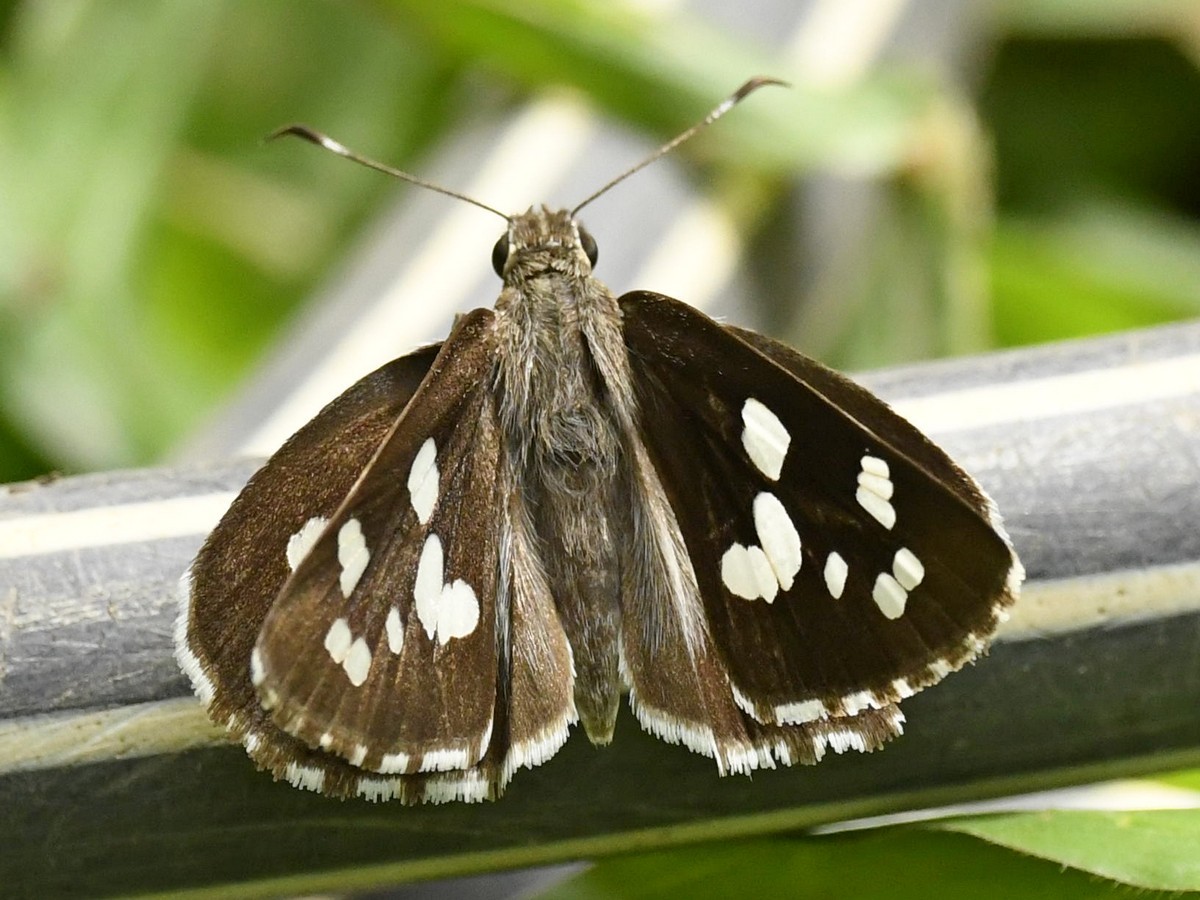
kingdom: Animalia
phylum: Arthropoda
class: Insecta
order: Lepidoptera
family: Hesperiidae
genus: Udaspes
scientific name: Udaspes folus
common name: Grass demon
